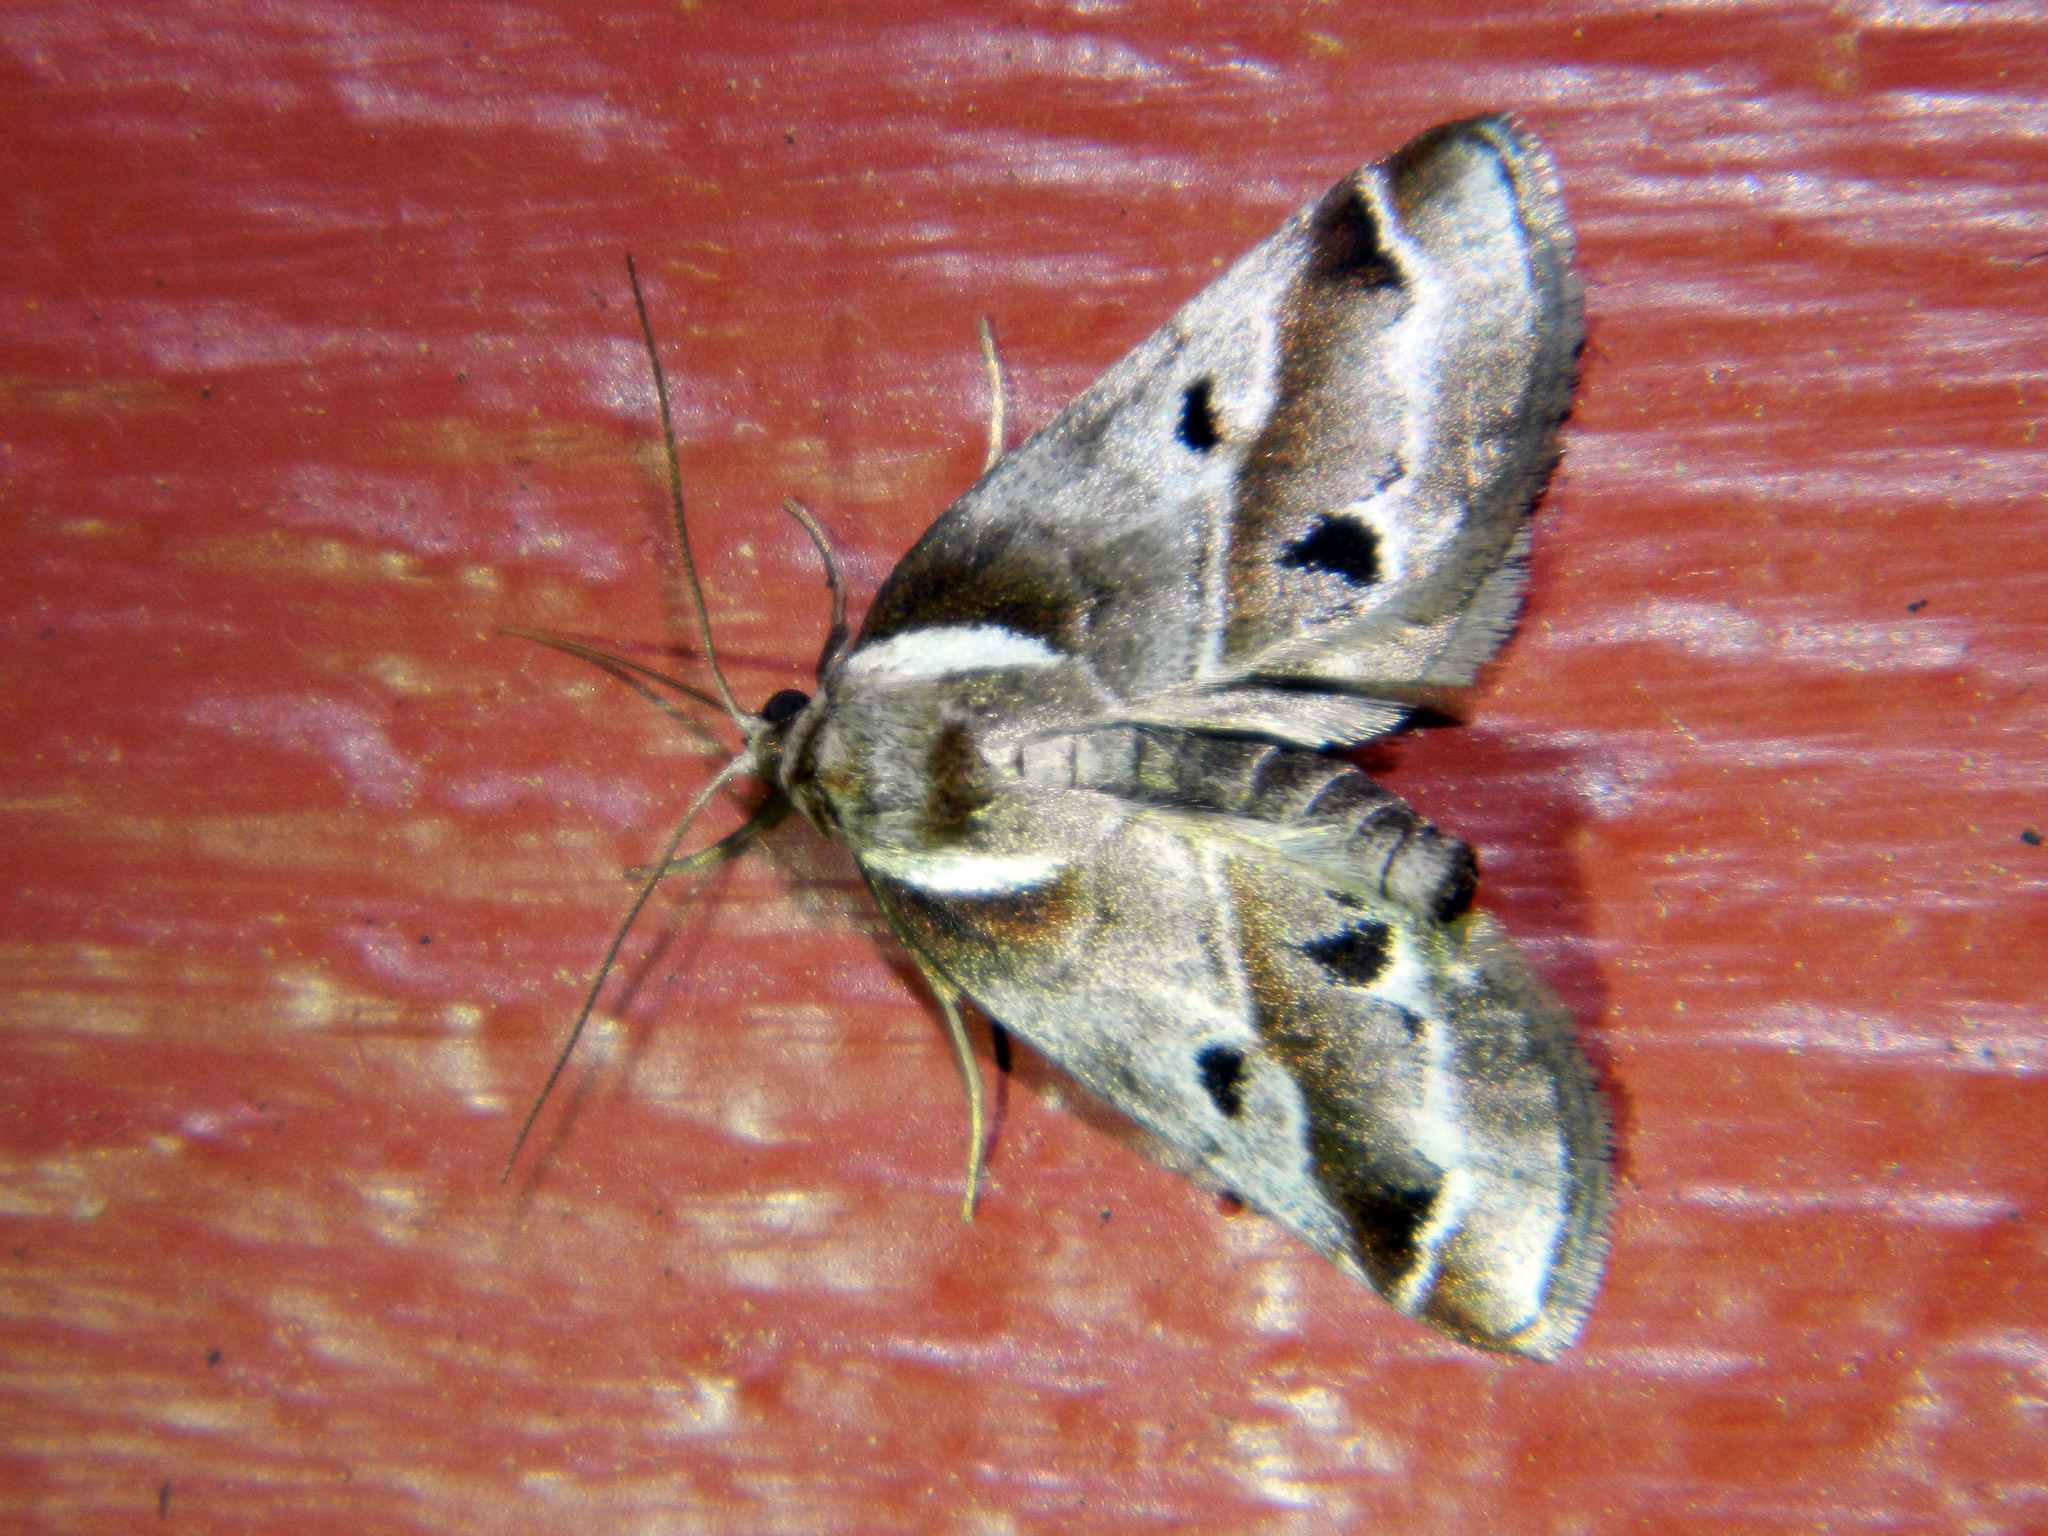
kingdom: Animalia
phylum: Arthropoda
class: Insecta
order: Lepidoptera
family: Nolidae
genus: Baileya
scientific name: Baileya doubledayi
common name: Doubleday's baileya moth
